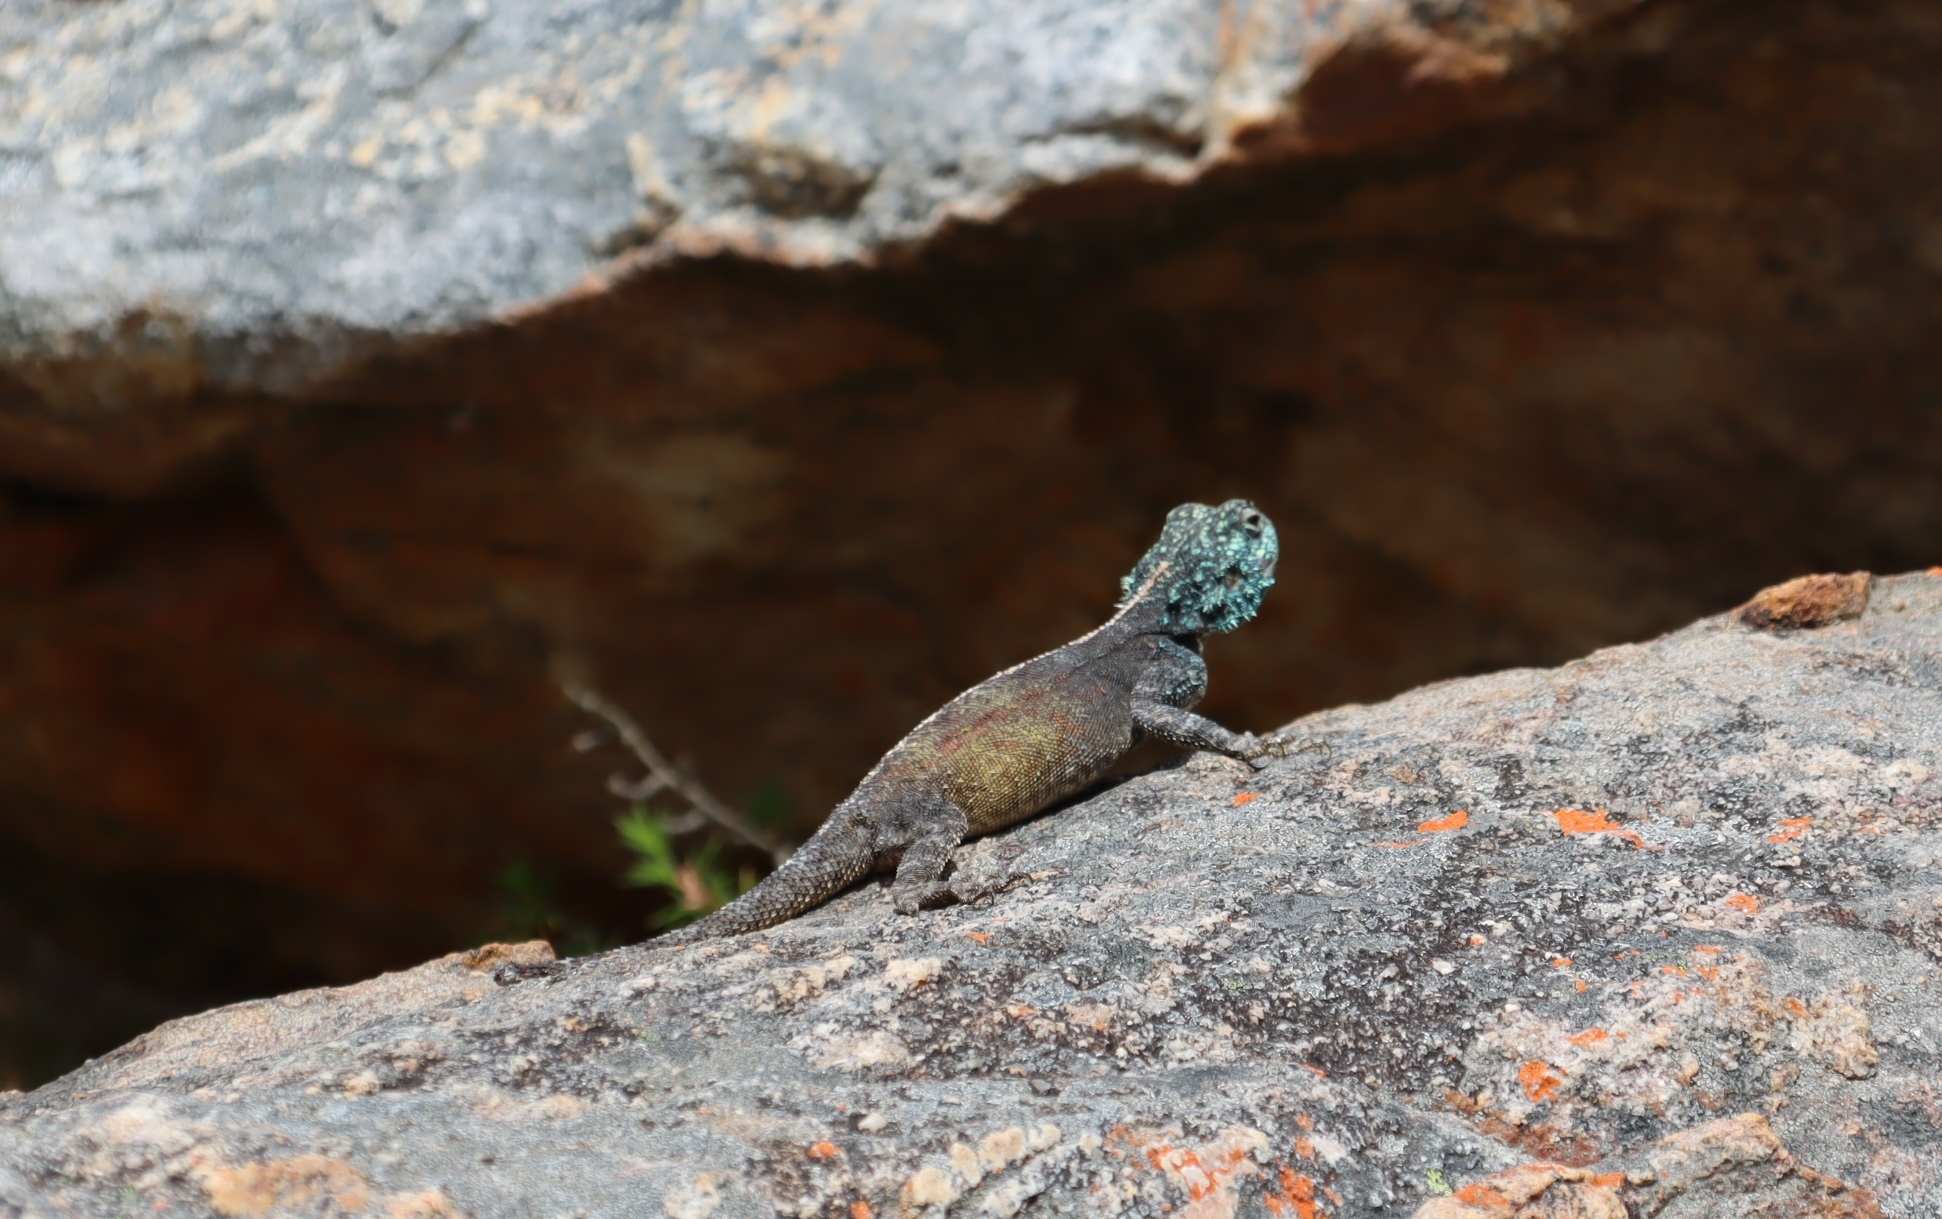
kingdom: Animalia
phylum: Chordata
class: Squamata
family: Agamidae
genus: Agama
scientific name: Agama atra
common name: Southern african rock agama
